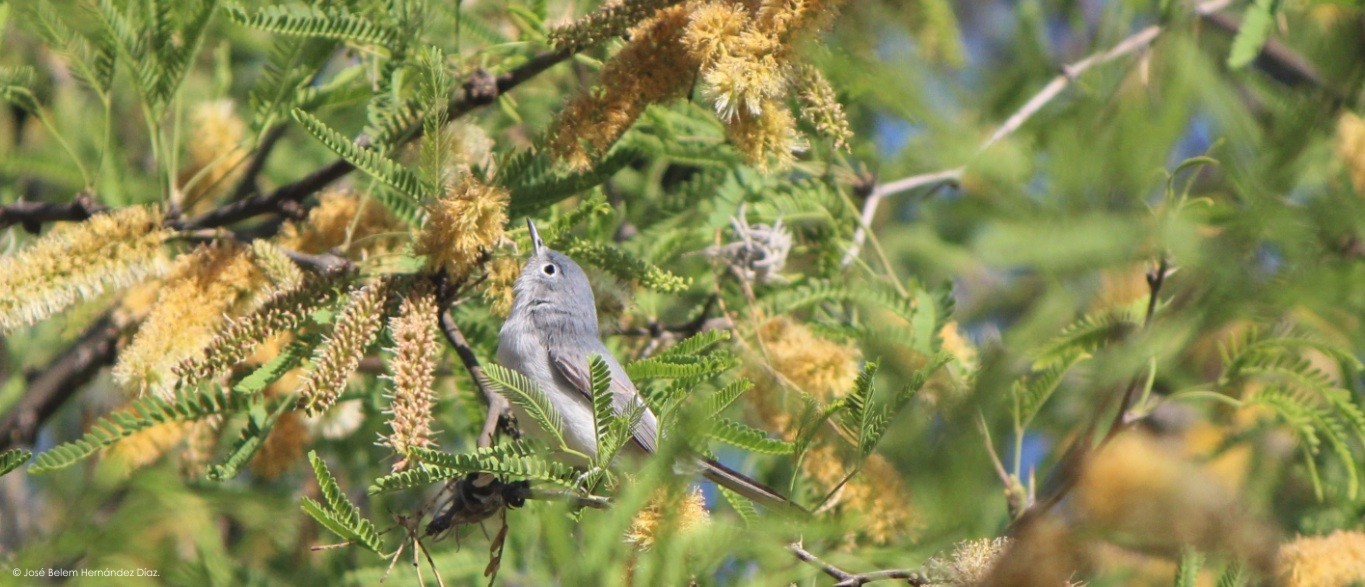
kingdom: Animalia
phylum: Chordata
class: Aves
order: Passeriformes
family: Polioptilidae
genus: Polioptila
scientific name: Polioptila caerulea
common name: Blue-gray gnatcatcher
